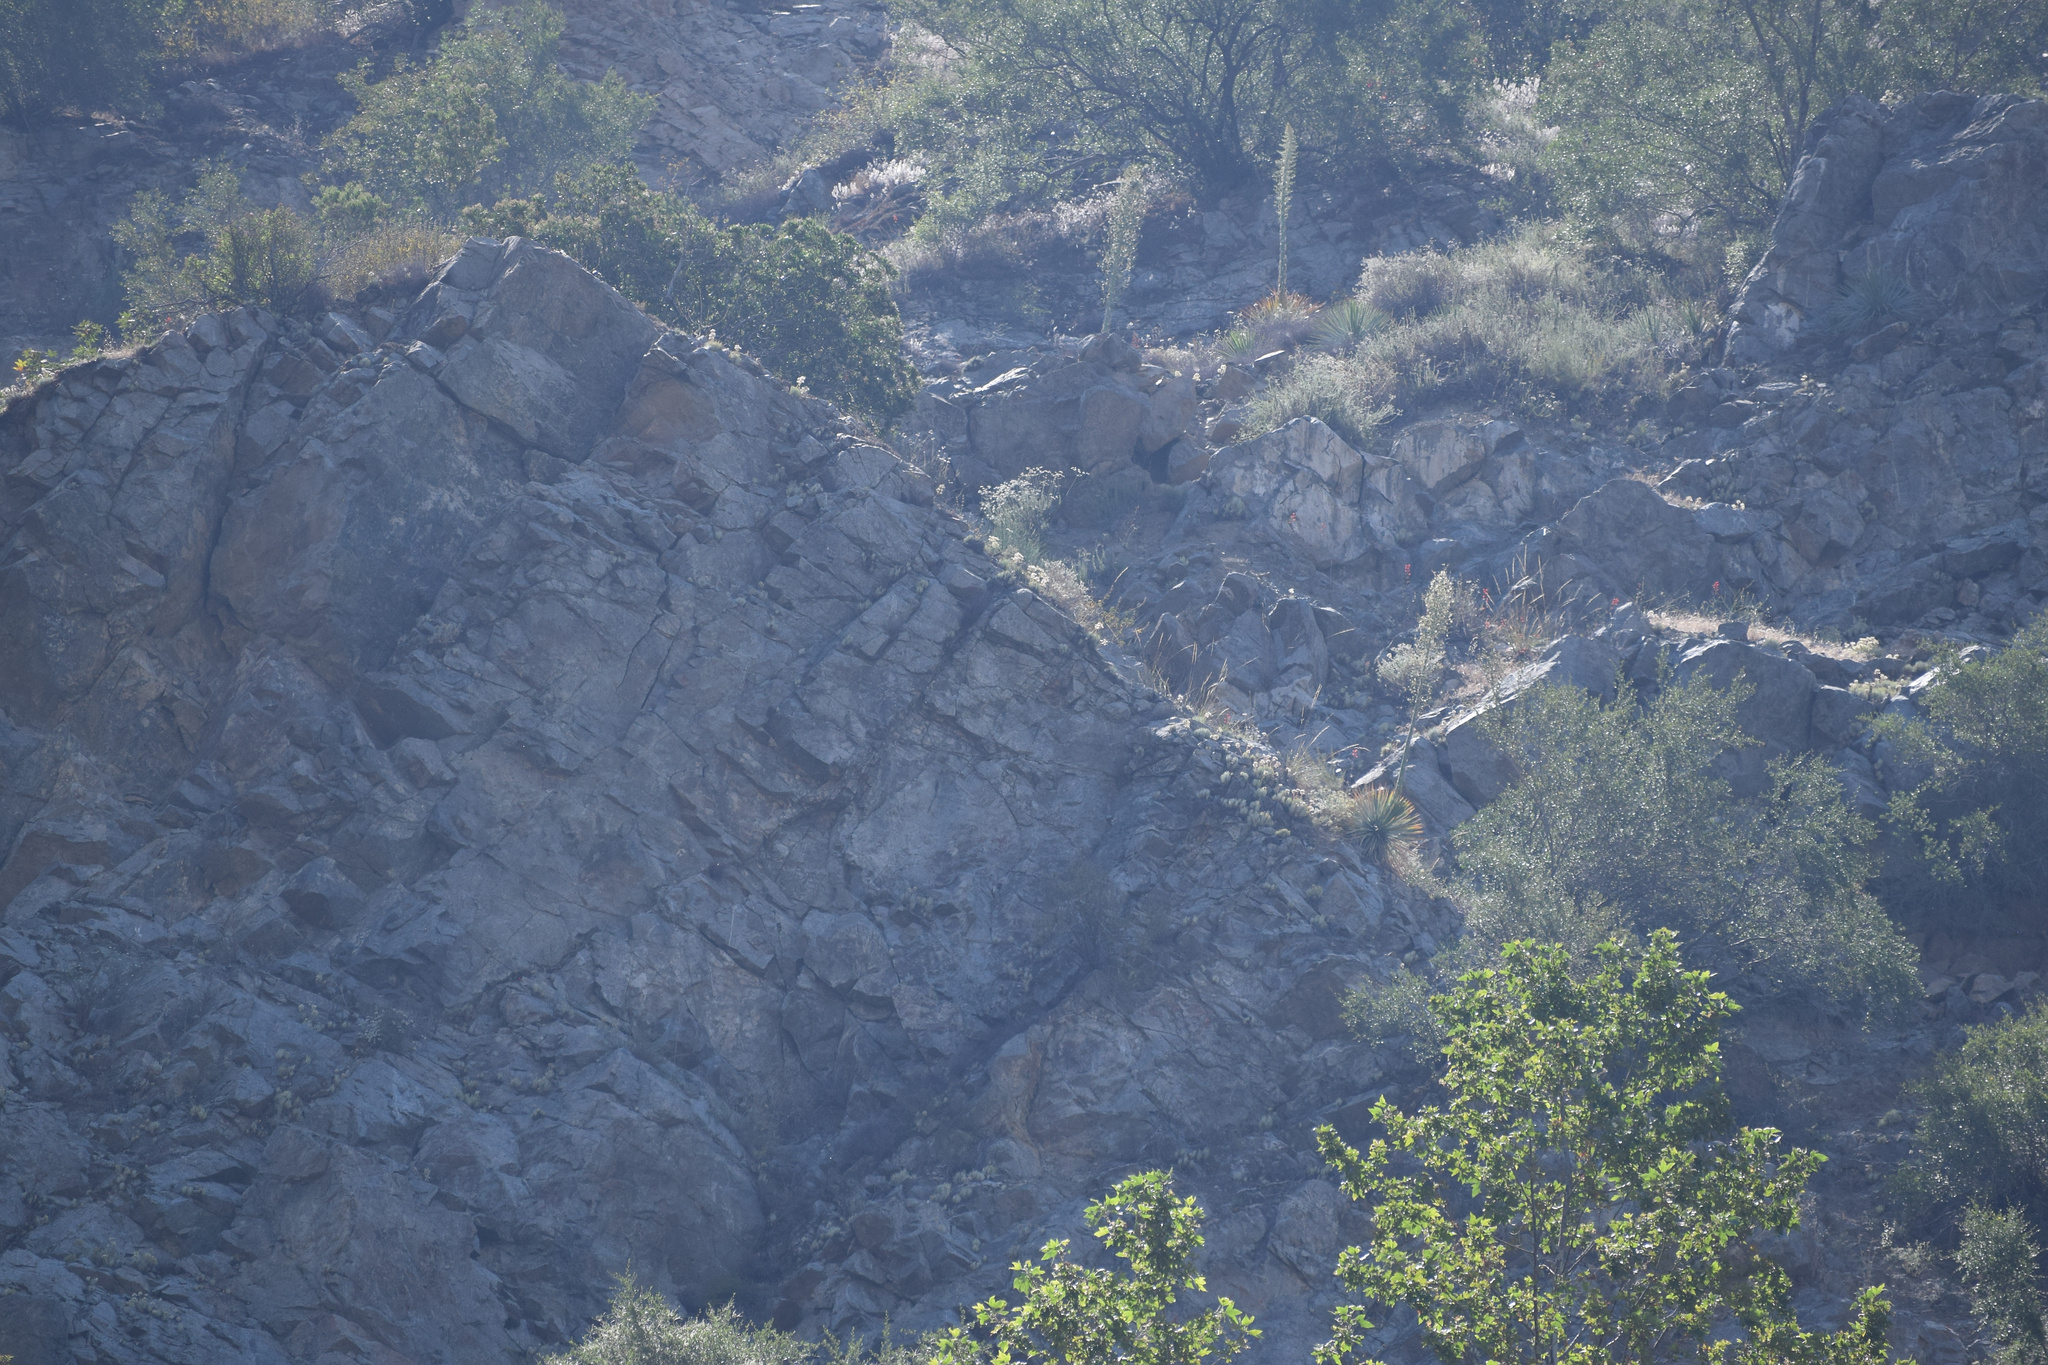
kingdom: Plantae
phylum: Tracheophyta
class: Magnoliopsida
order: Saxifragales
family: Crassulaceae
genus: Dudleya
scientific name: Dudleya densiflora
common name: San gabriel mountains dudleya
